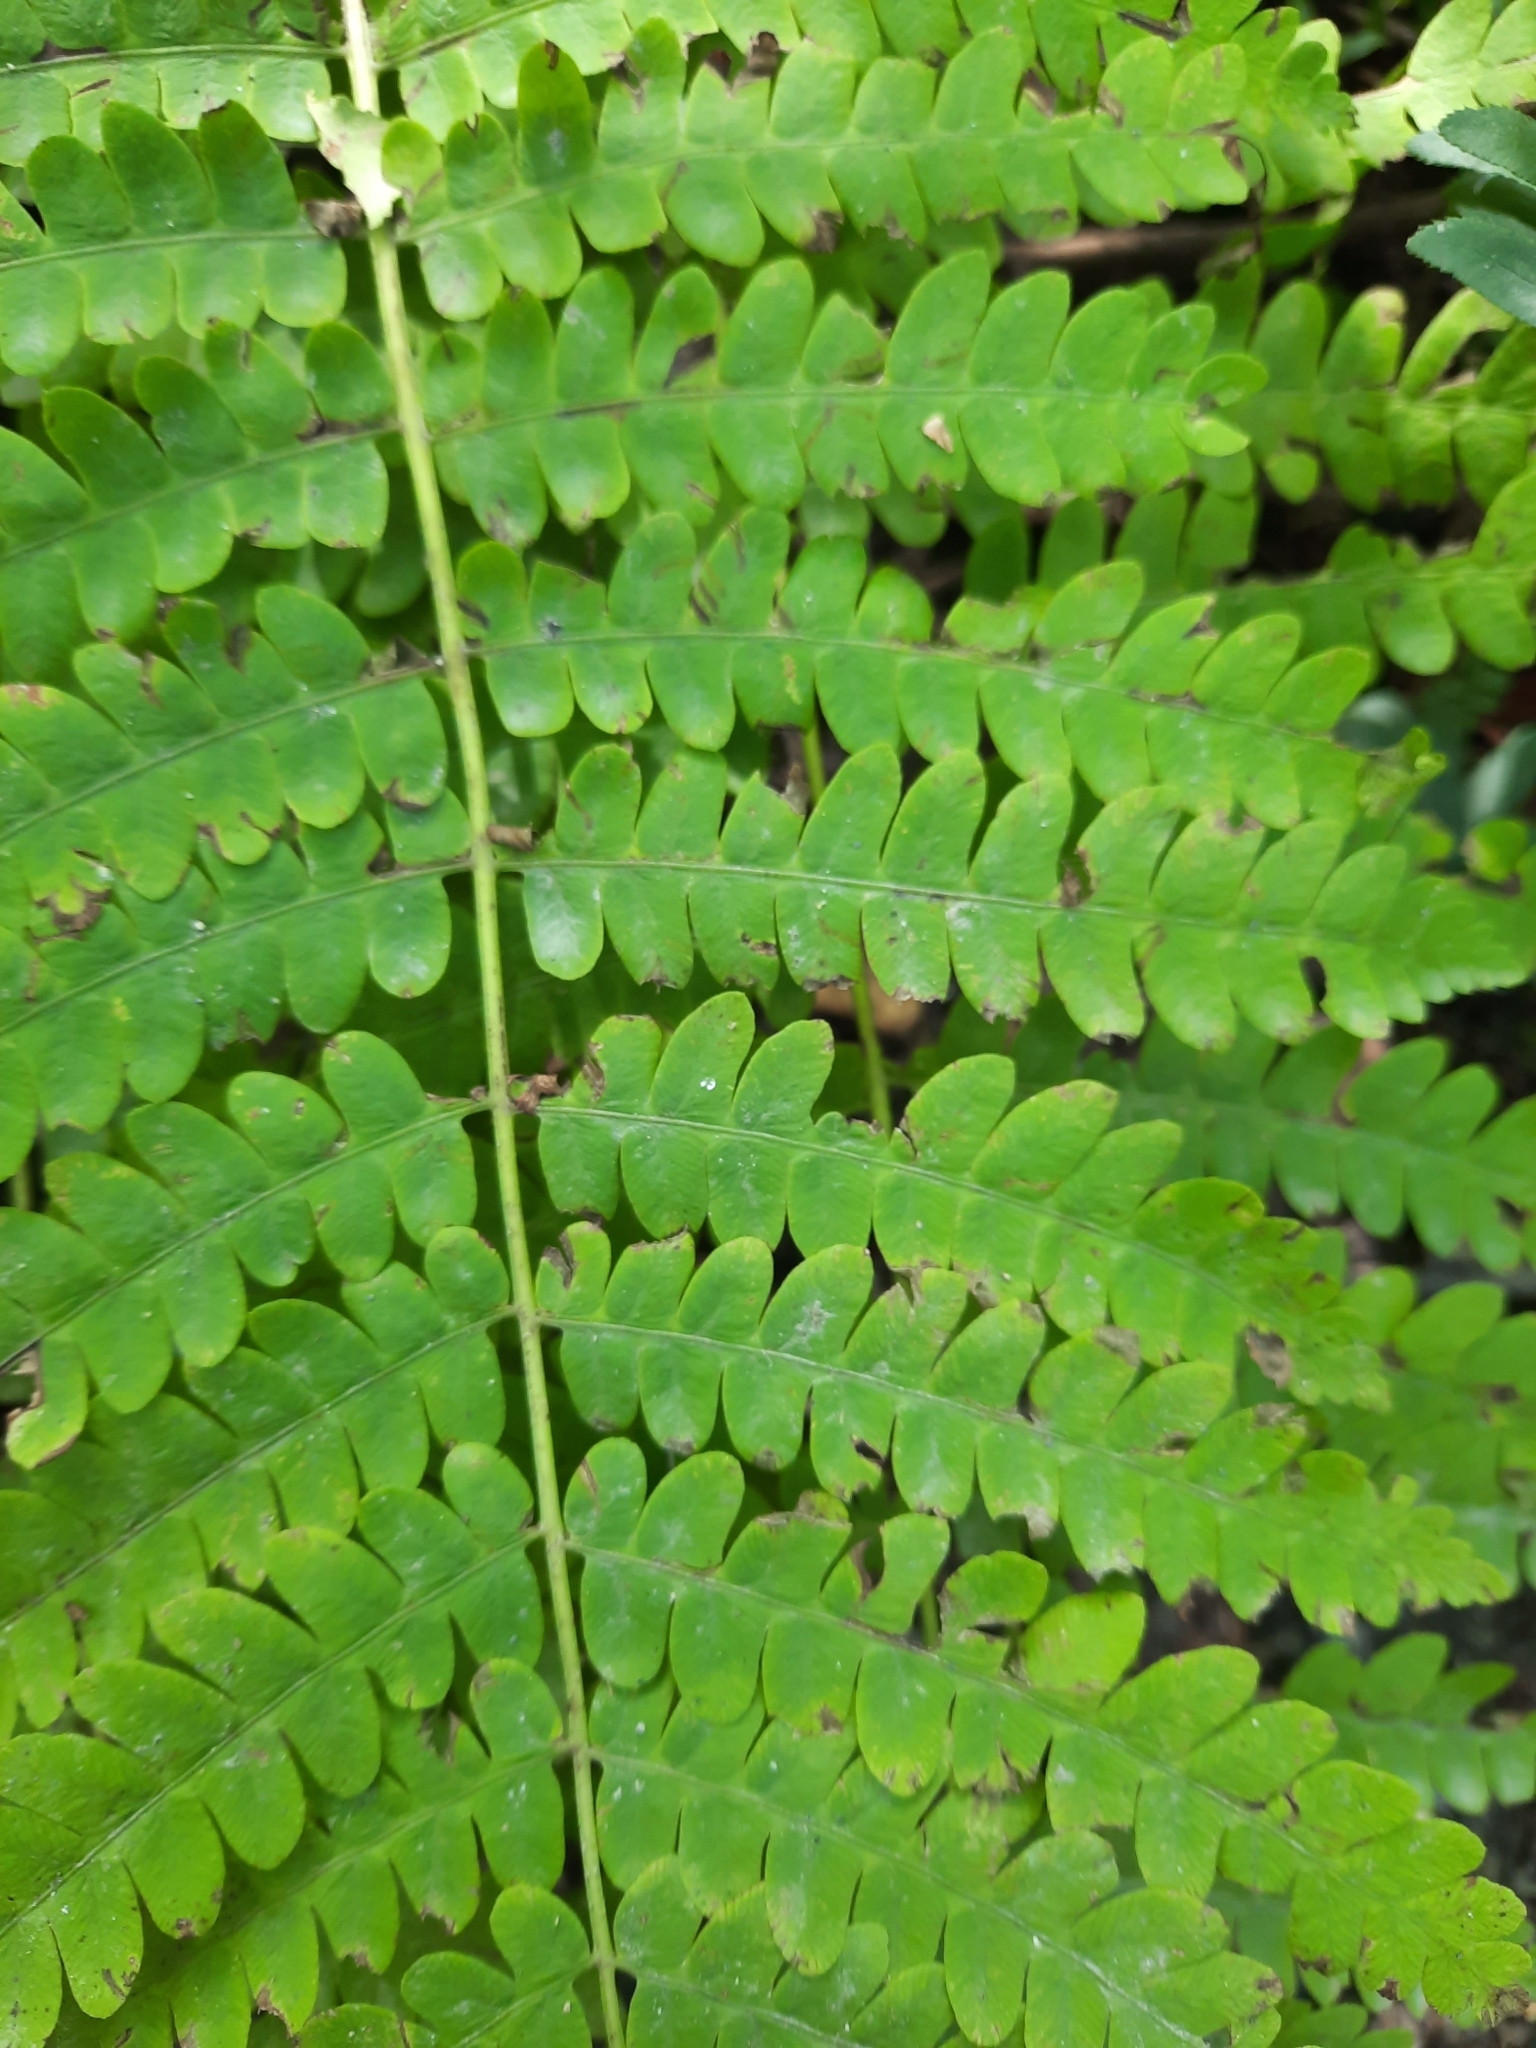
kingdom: Plantae
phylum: Tracheophyta
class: Polypodiopsida
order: Osmundales
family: Osmundaceae
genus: Claytosmunda
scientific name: Claytosmunda claytoniana
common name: Clayton's fern
